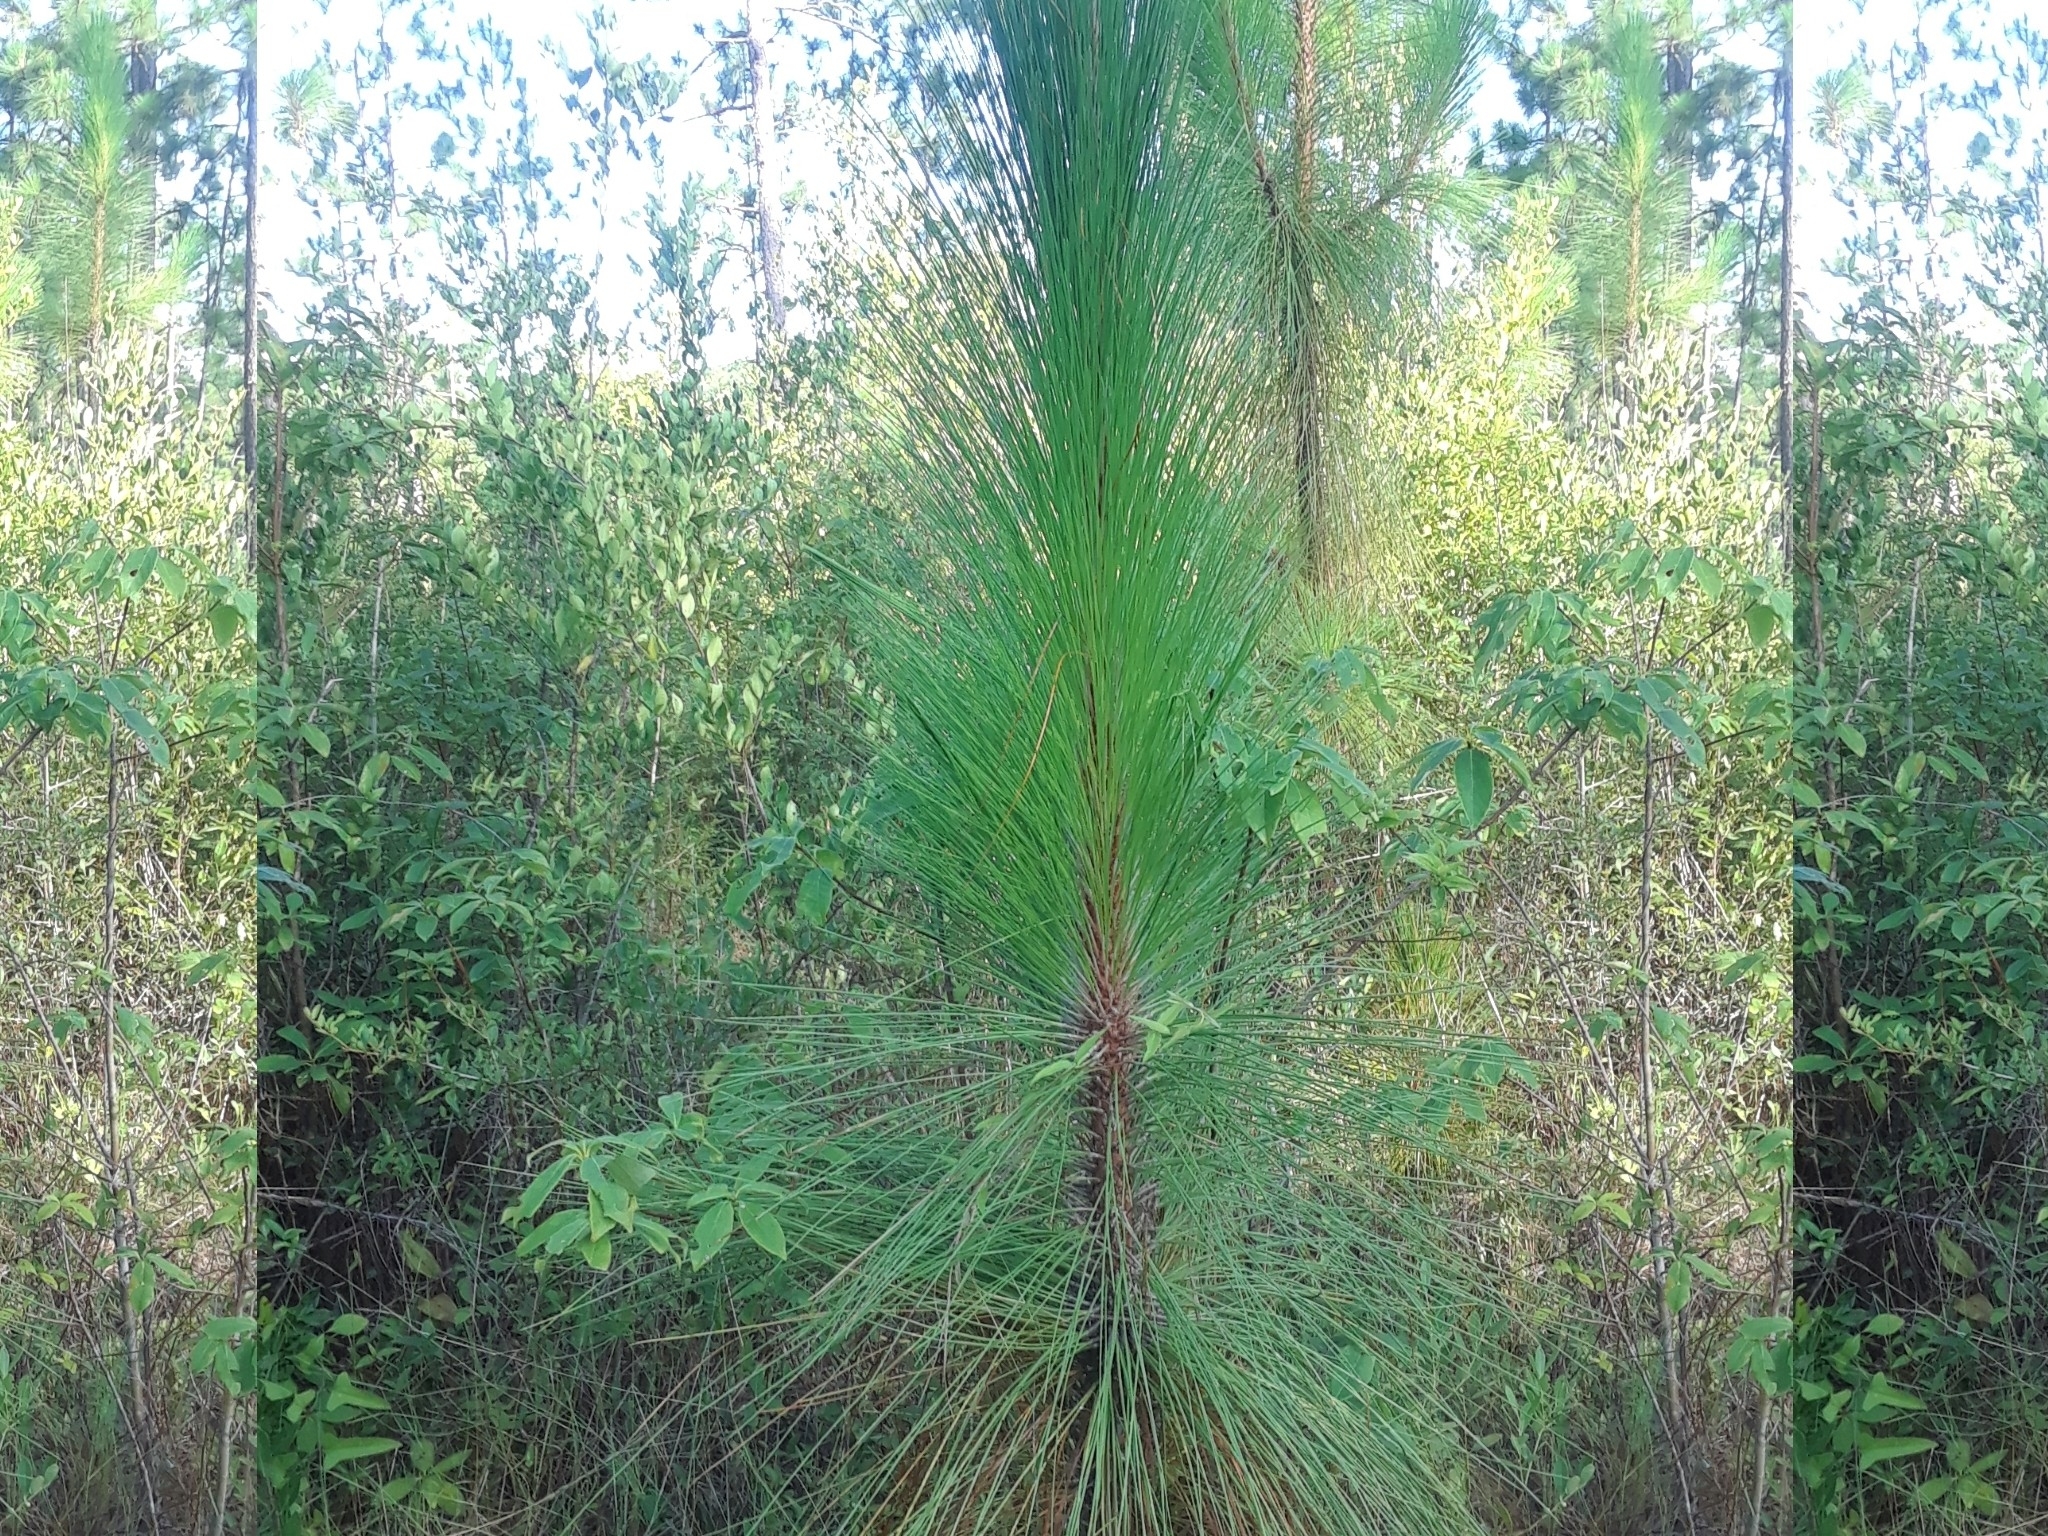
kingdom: Plantae
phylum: Tracheophyta
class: Pinopsida
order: Pinales
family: Pinaceae
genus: Pinus
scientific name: Pinus palustris
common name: Longleaf pine
